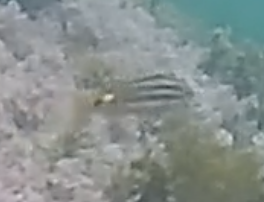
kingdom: Animalia
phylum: Chordata
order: Perciformes
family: Mullidae
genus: Parupeneus
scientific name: Parupeneus spilurus
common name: Blackspot goatfish
